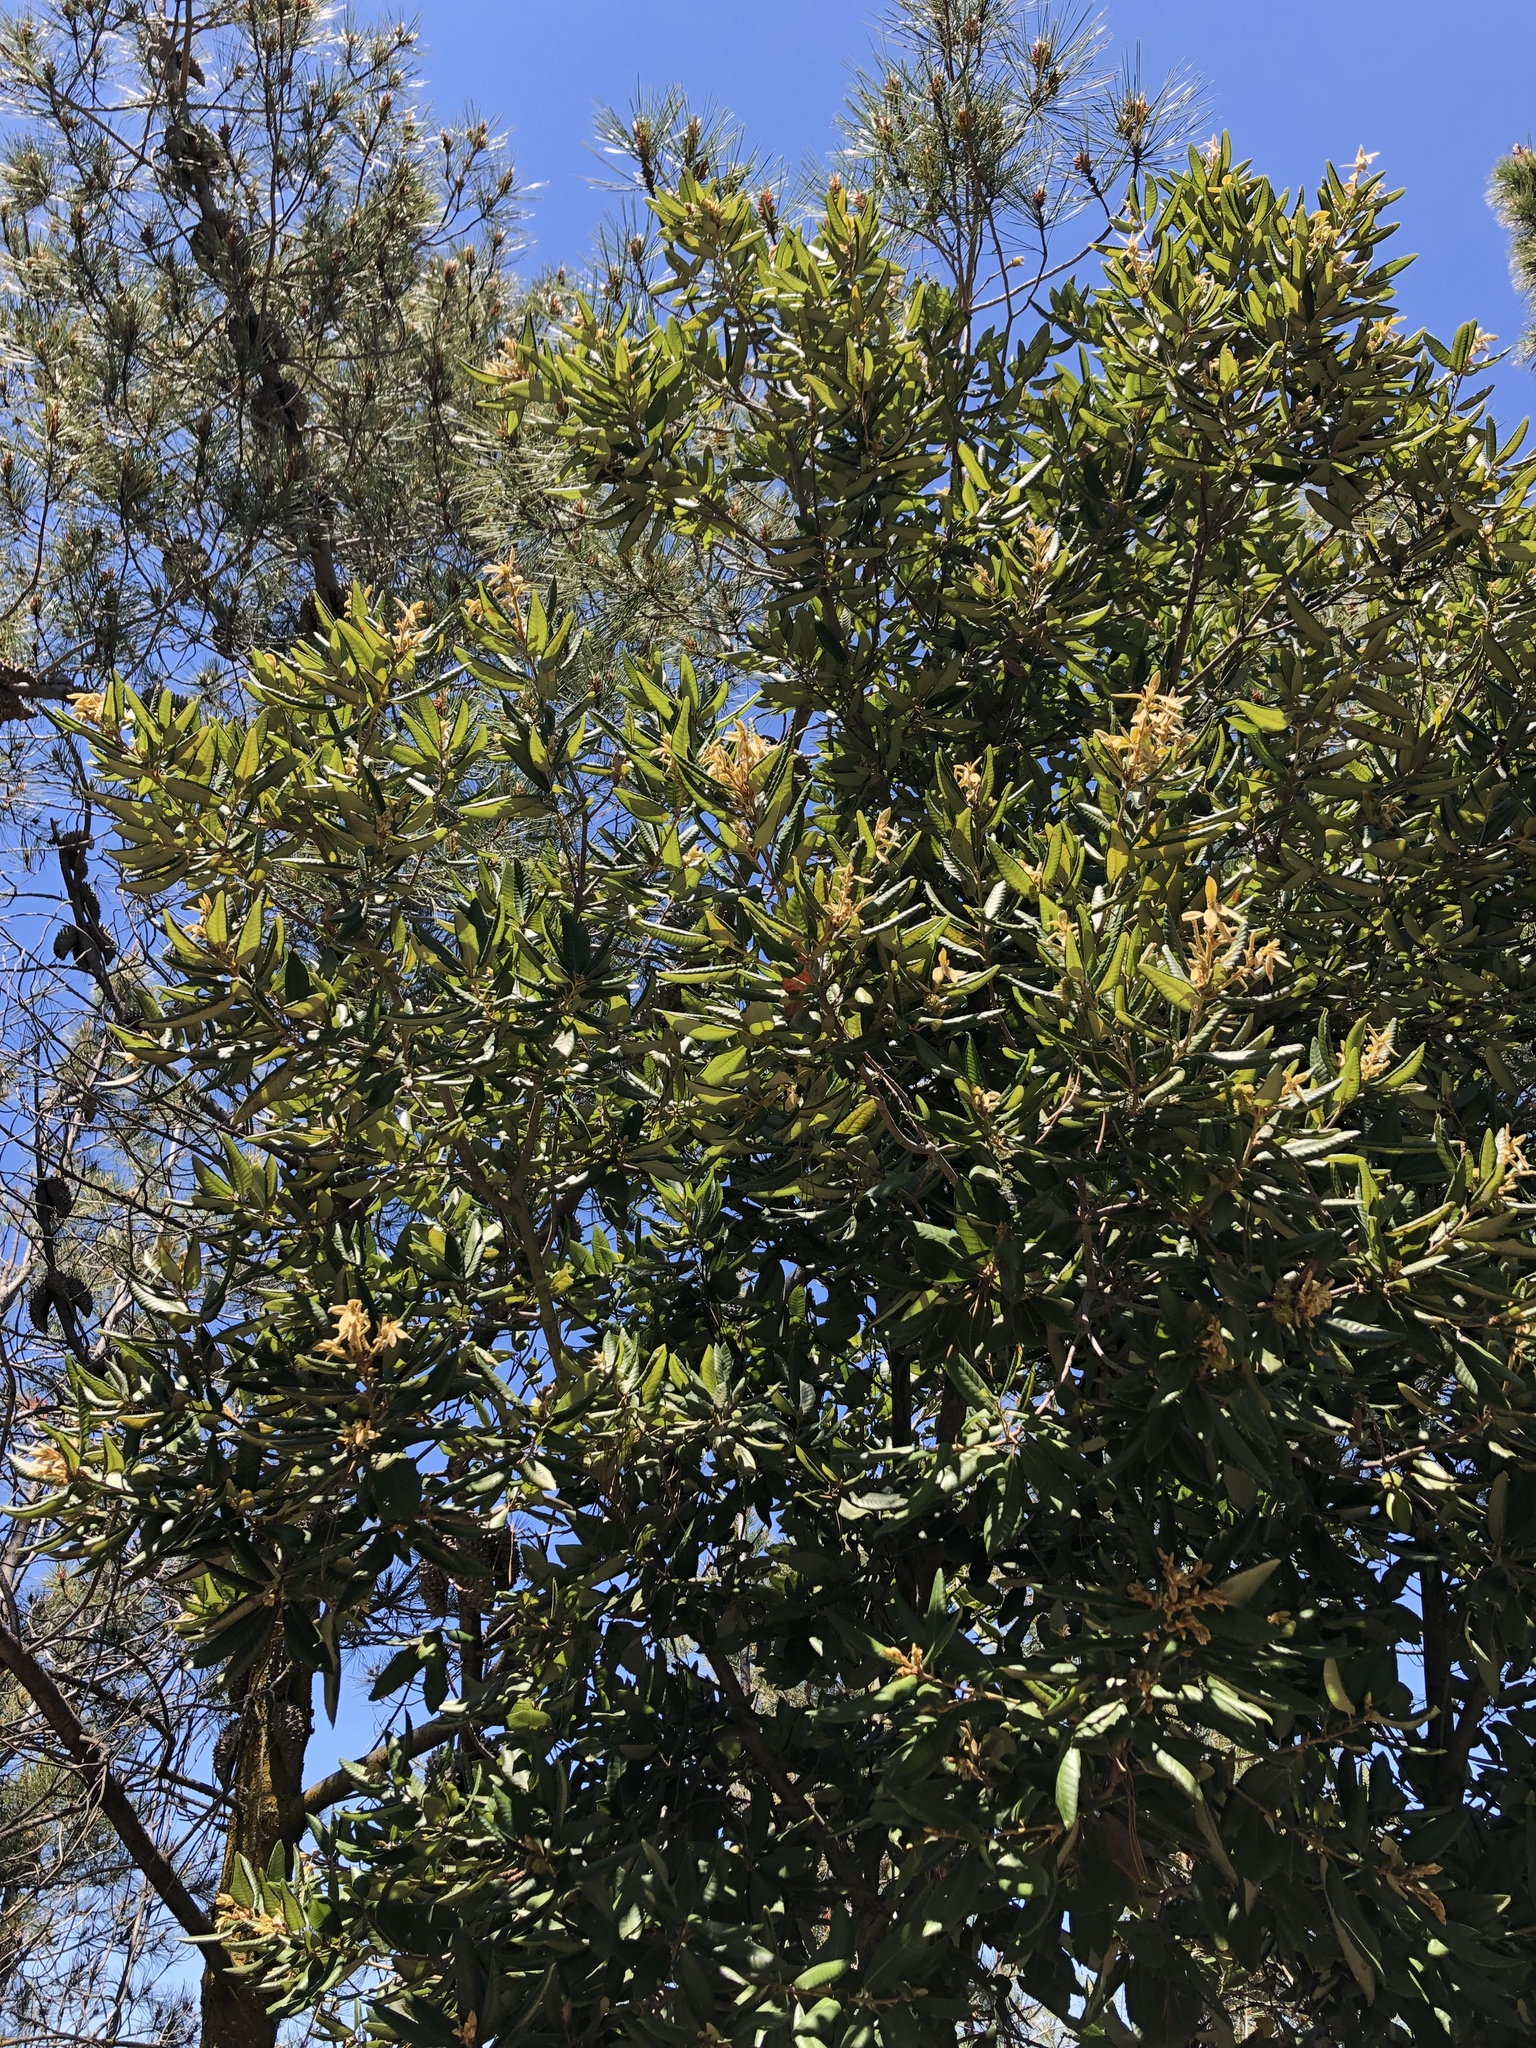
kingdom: Plantae
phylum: Tracheophyta
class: Magnoliopsida
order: Fagales
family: Fagaceae
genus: Notholithocarpus
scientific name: Notholithocarpus densiflorus
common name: Tan bark oak
